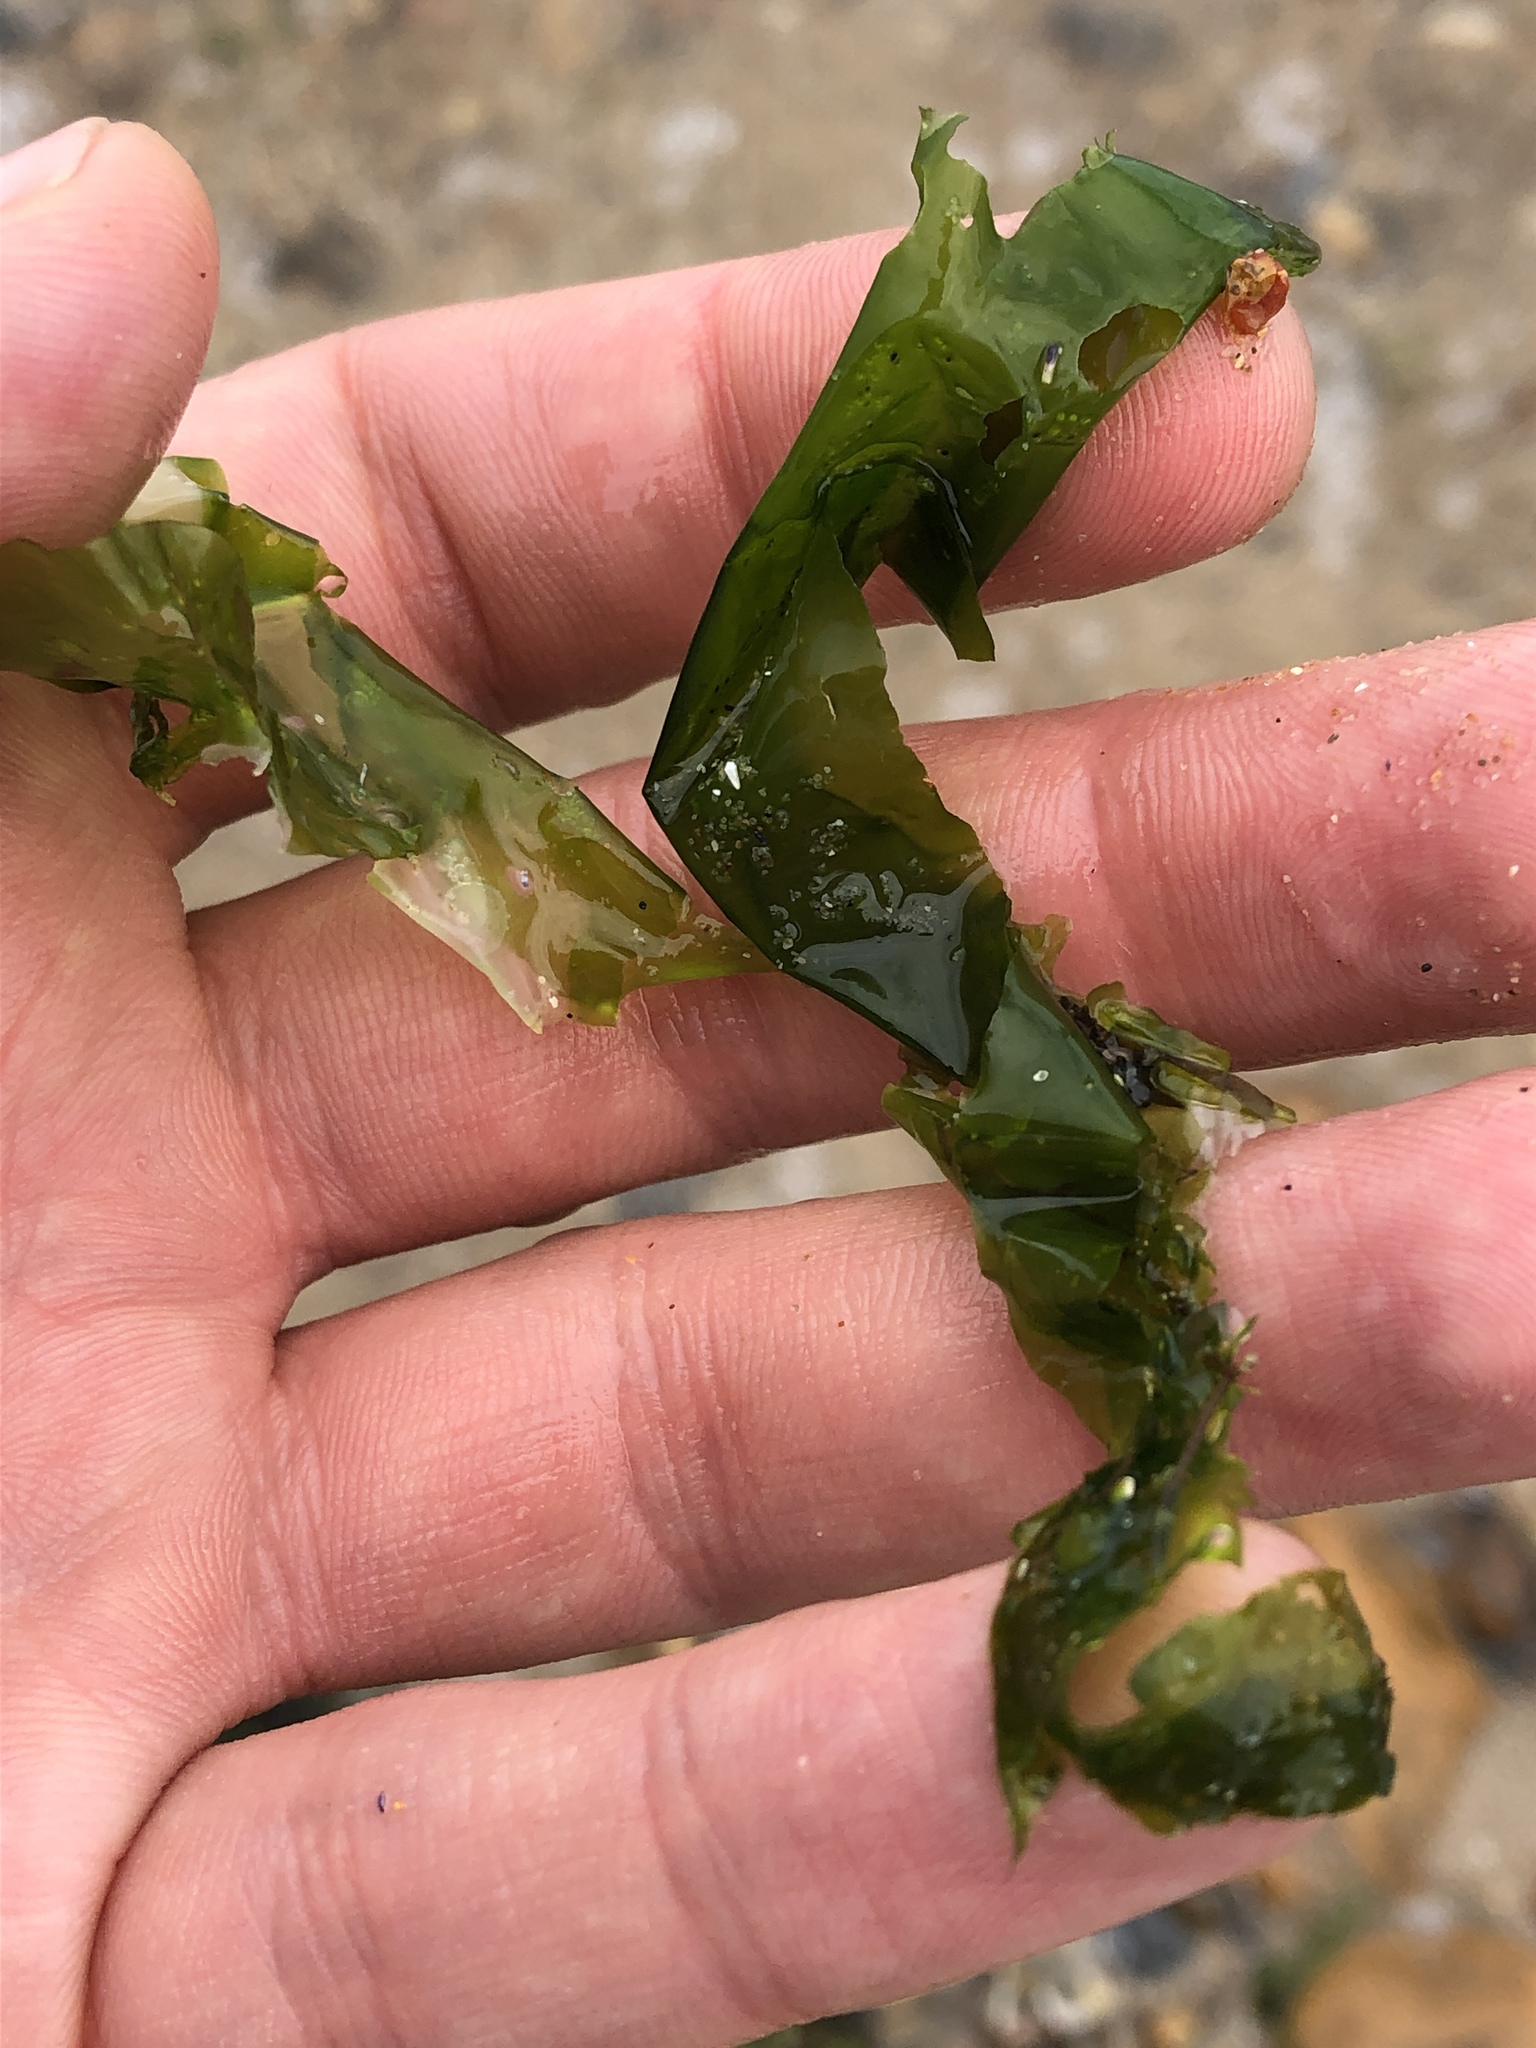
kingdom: Plantae
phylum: Chlorophyta
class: Ulvophyceae
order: Ulvales
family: Ulvaceae
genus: Ulva
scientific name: Ulva lactuca
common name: Sea lettuce
